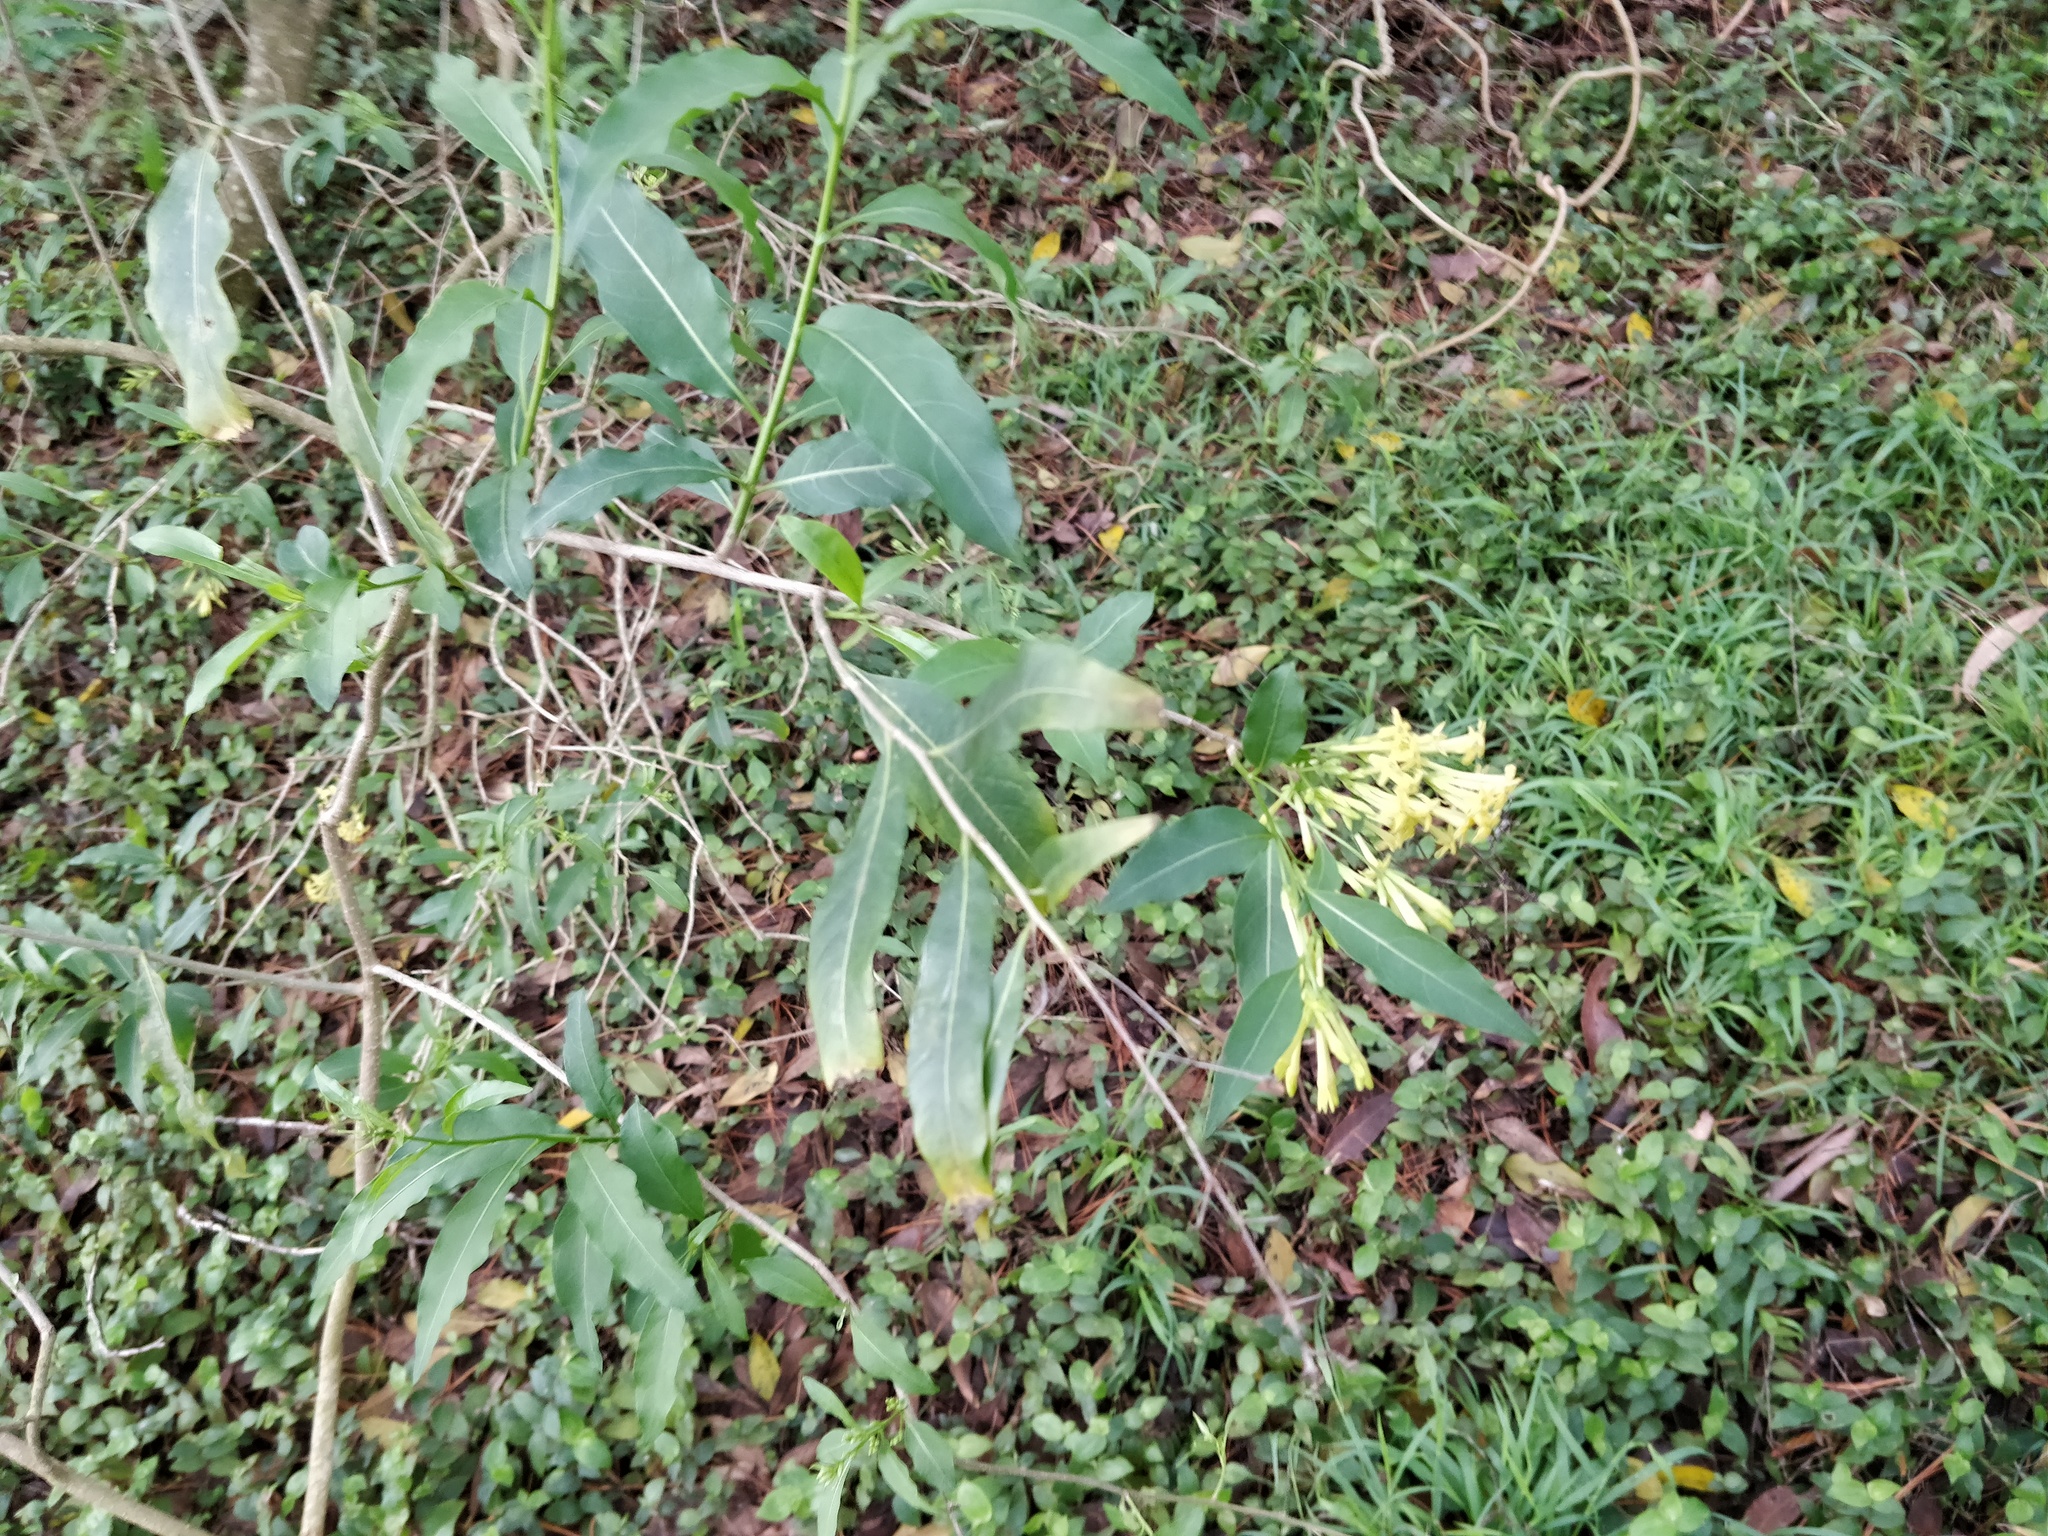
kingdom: Plantae
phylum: Tracheophyta
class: Magnoliopsida
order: Solanales
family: Solanaceae
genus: Cestrum
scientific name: Cestrum parqui
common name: Chilean cestrum
